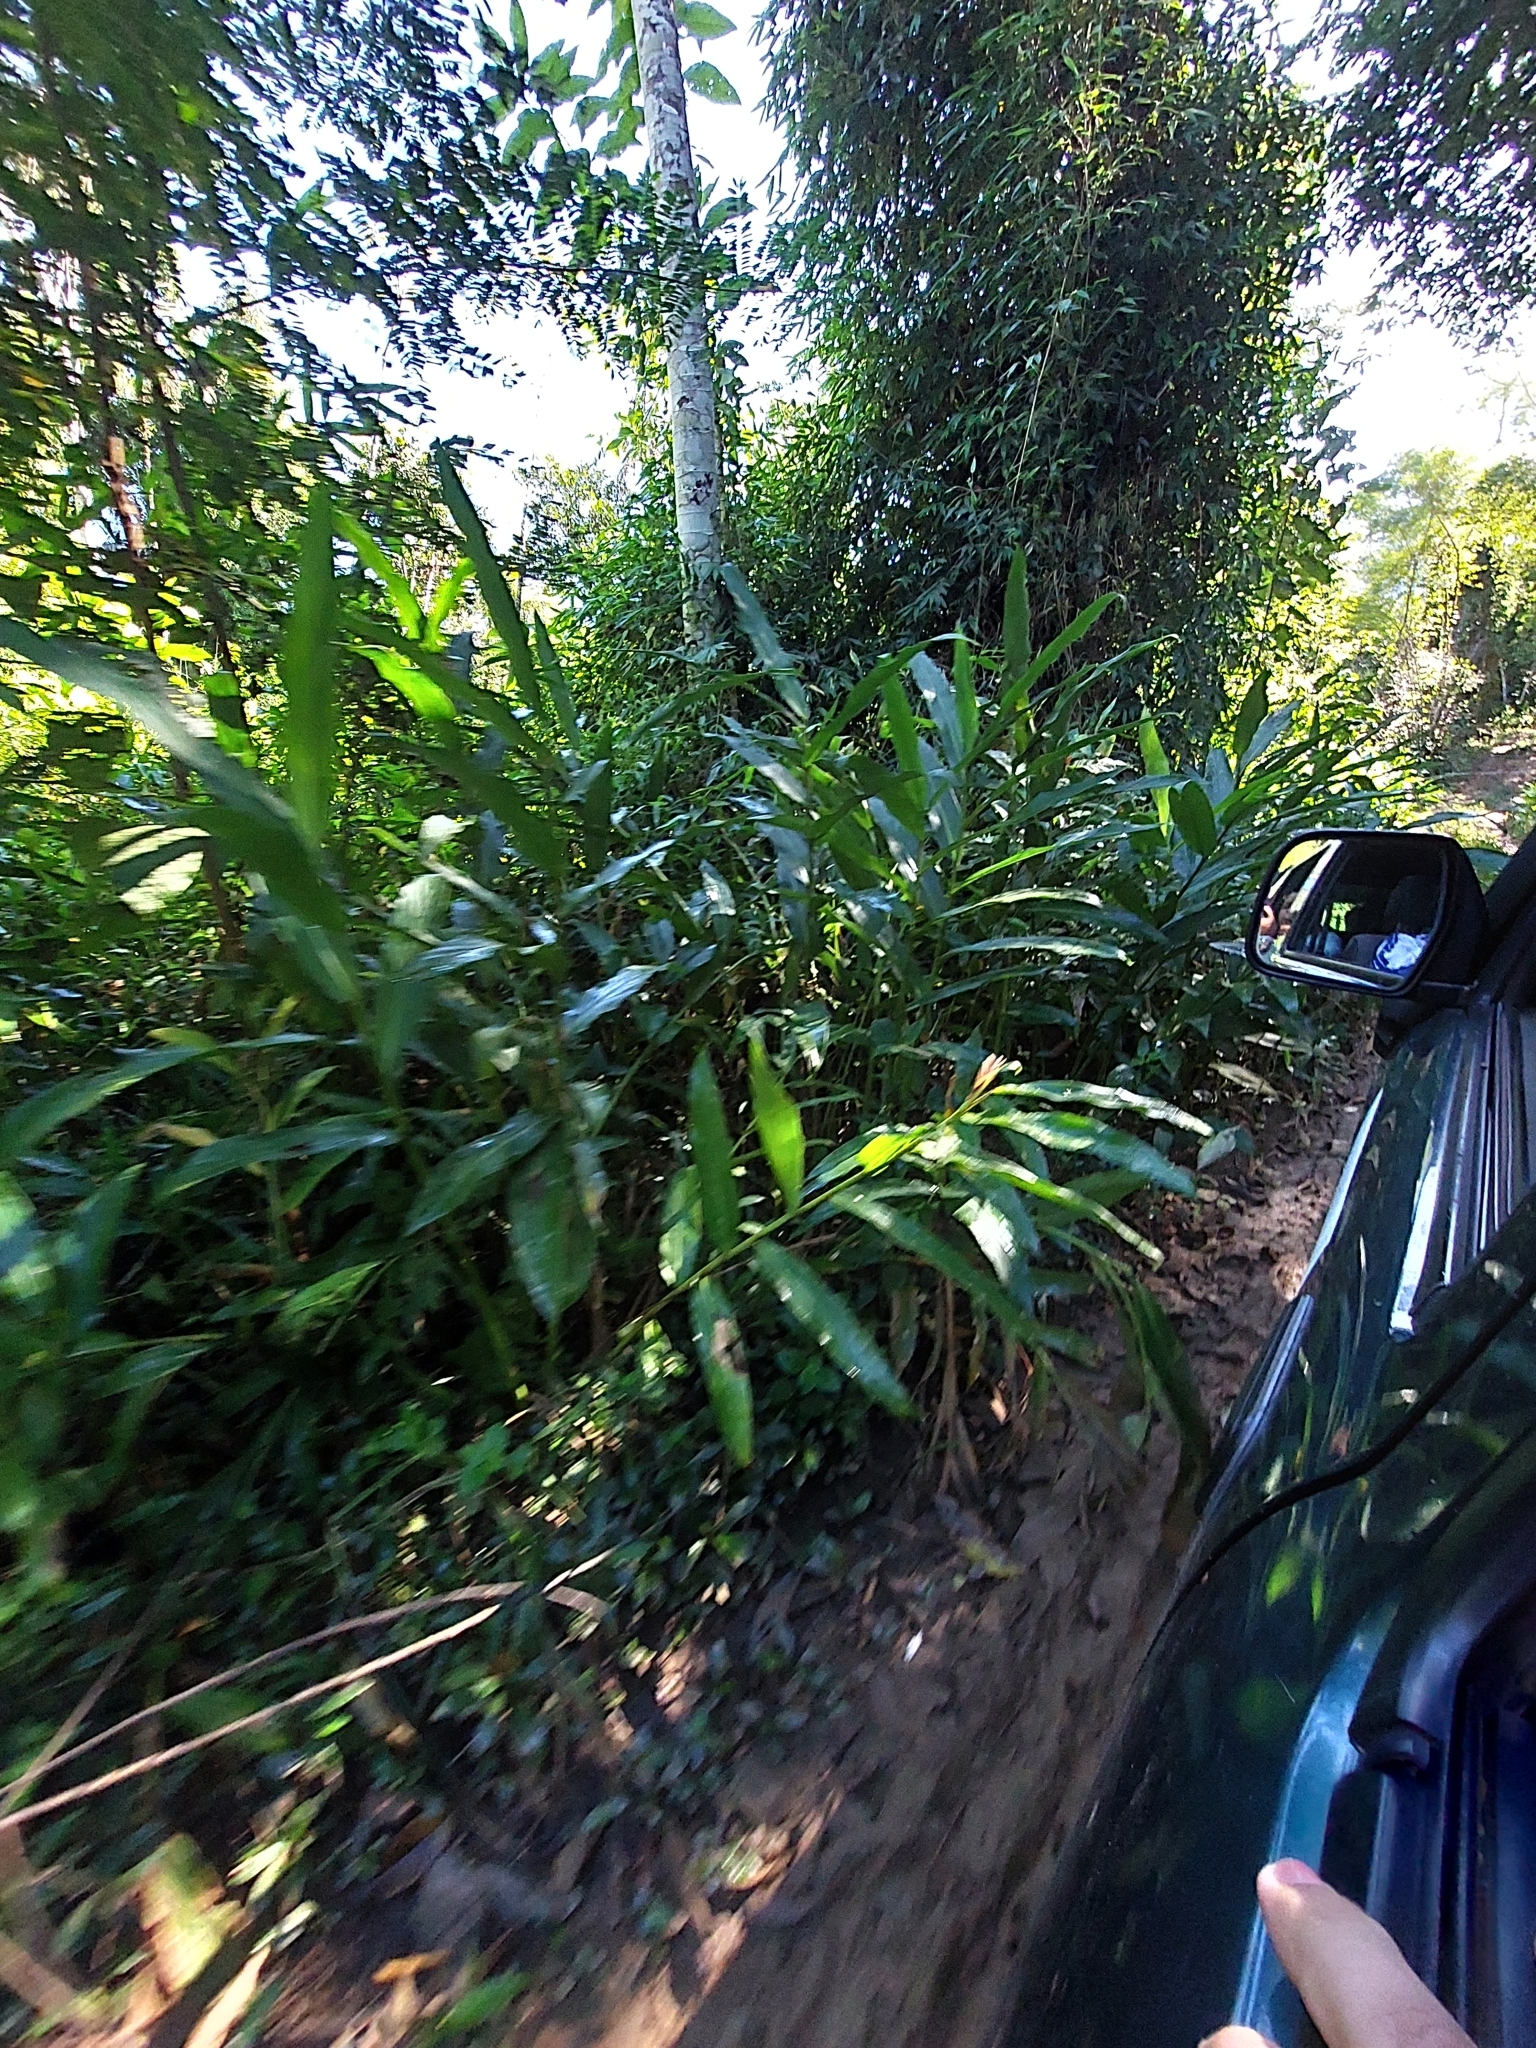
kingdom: Plantae
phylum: Tracheophyta
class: Liliopsida
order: Zingiberales
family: Zingiberaceae
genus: Hedychium
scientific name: Hedychium coronarium
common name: White garland-lily
